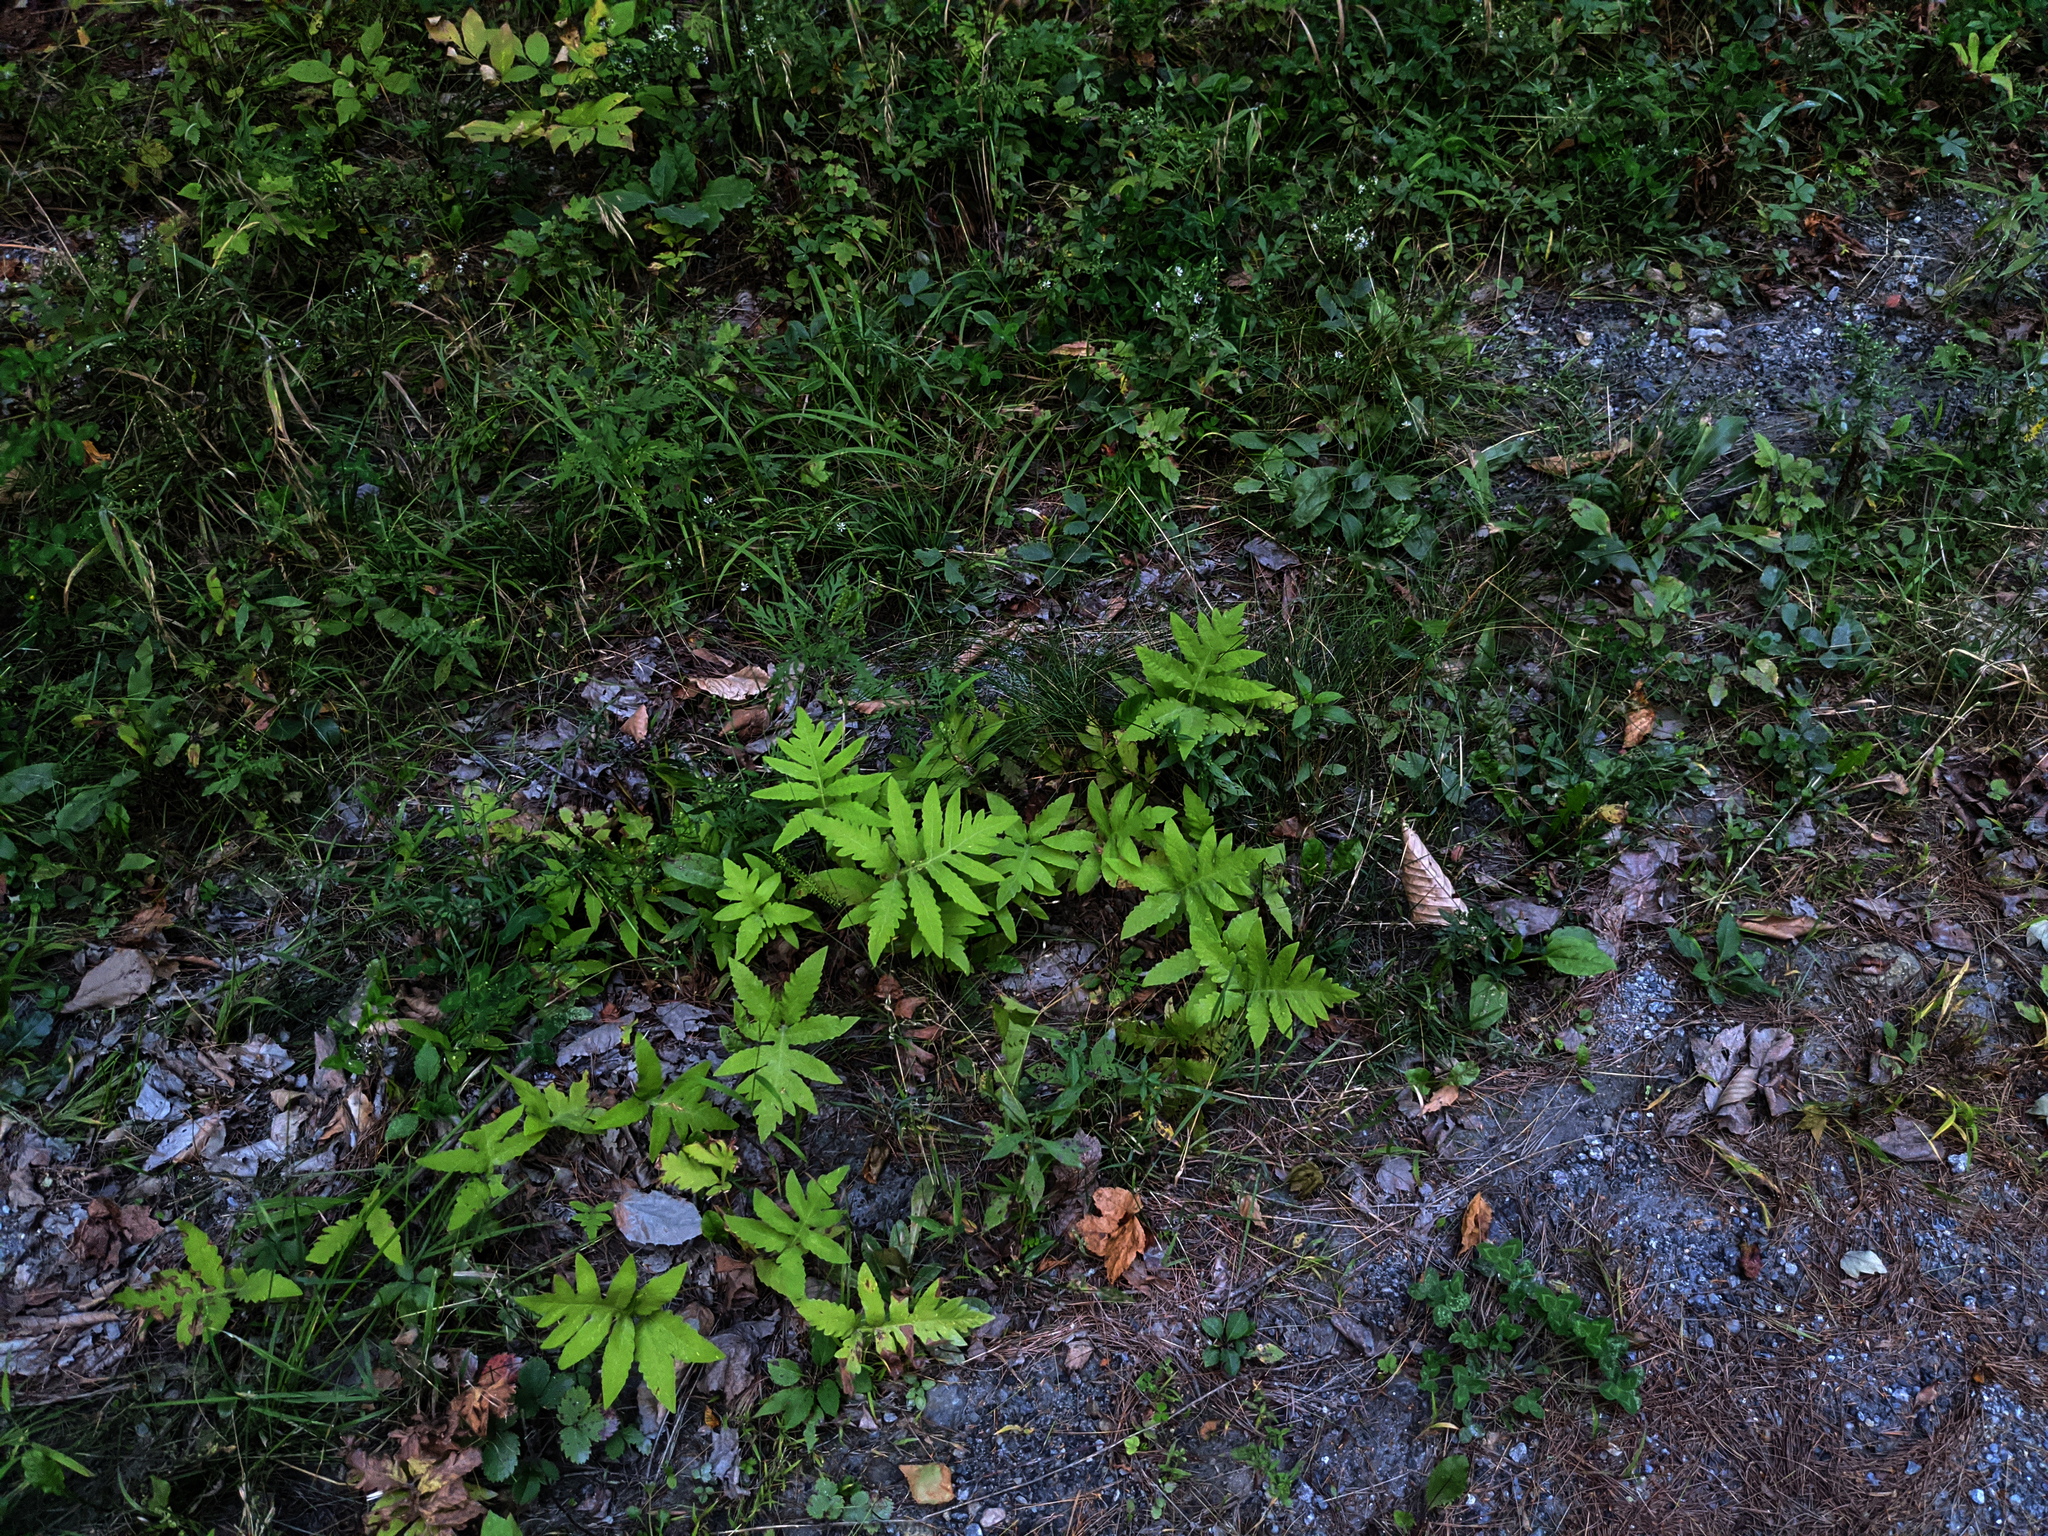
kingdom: Plantae
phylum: Tracheophyta
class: Polypodiopsida
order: Polypodiales
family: Onocleaceae
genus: Onoclea
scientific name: Onoclea sensibilis
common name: Sensitive fern
